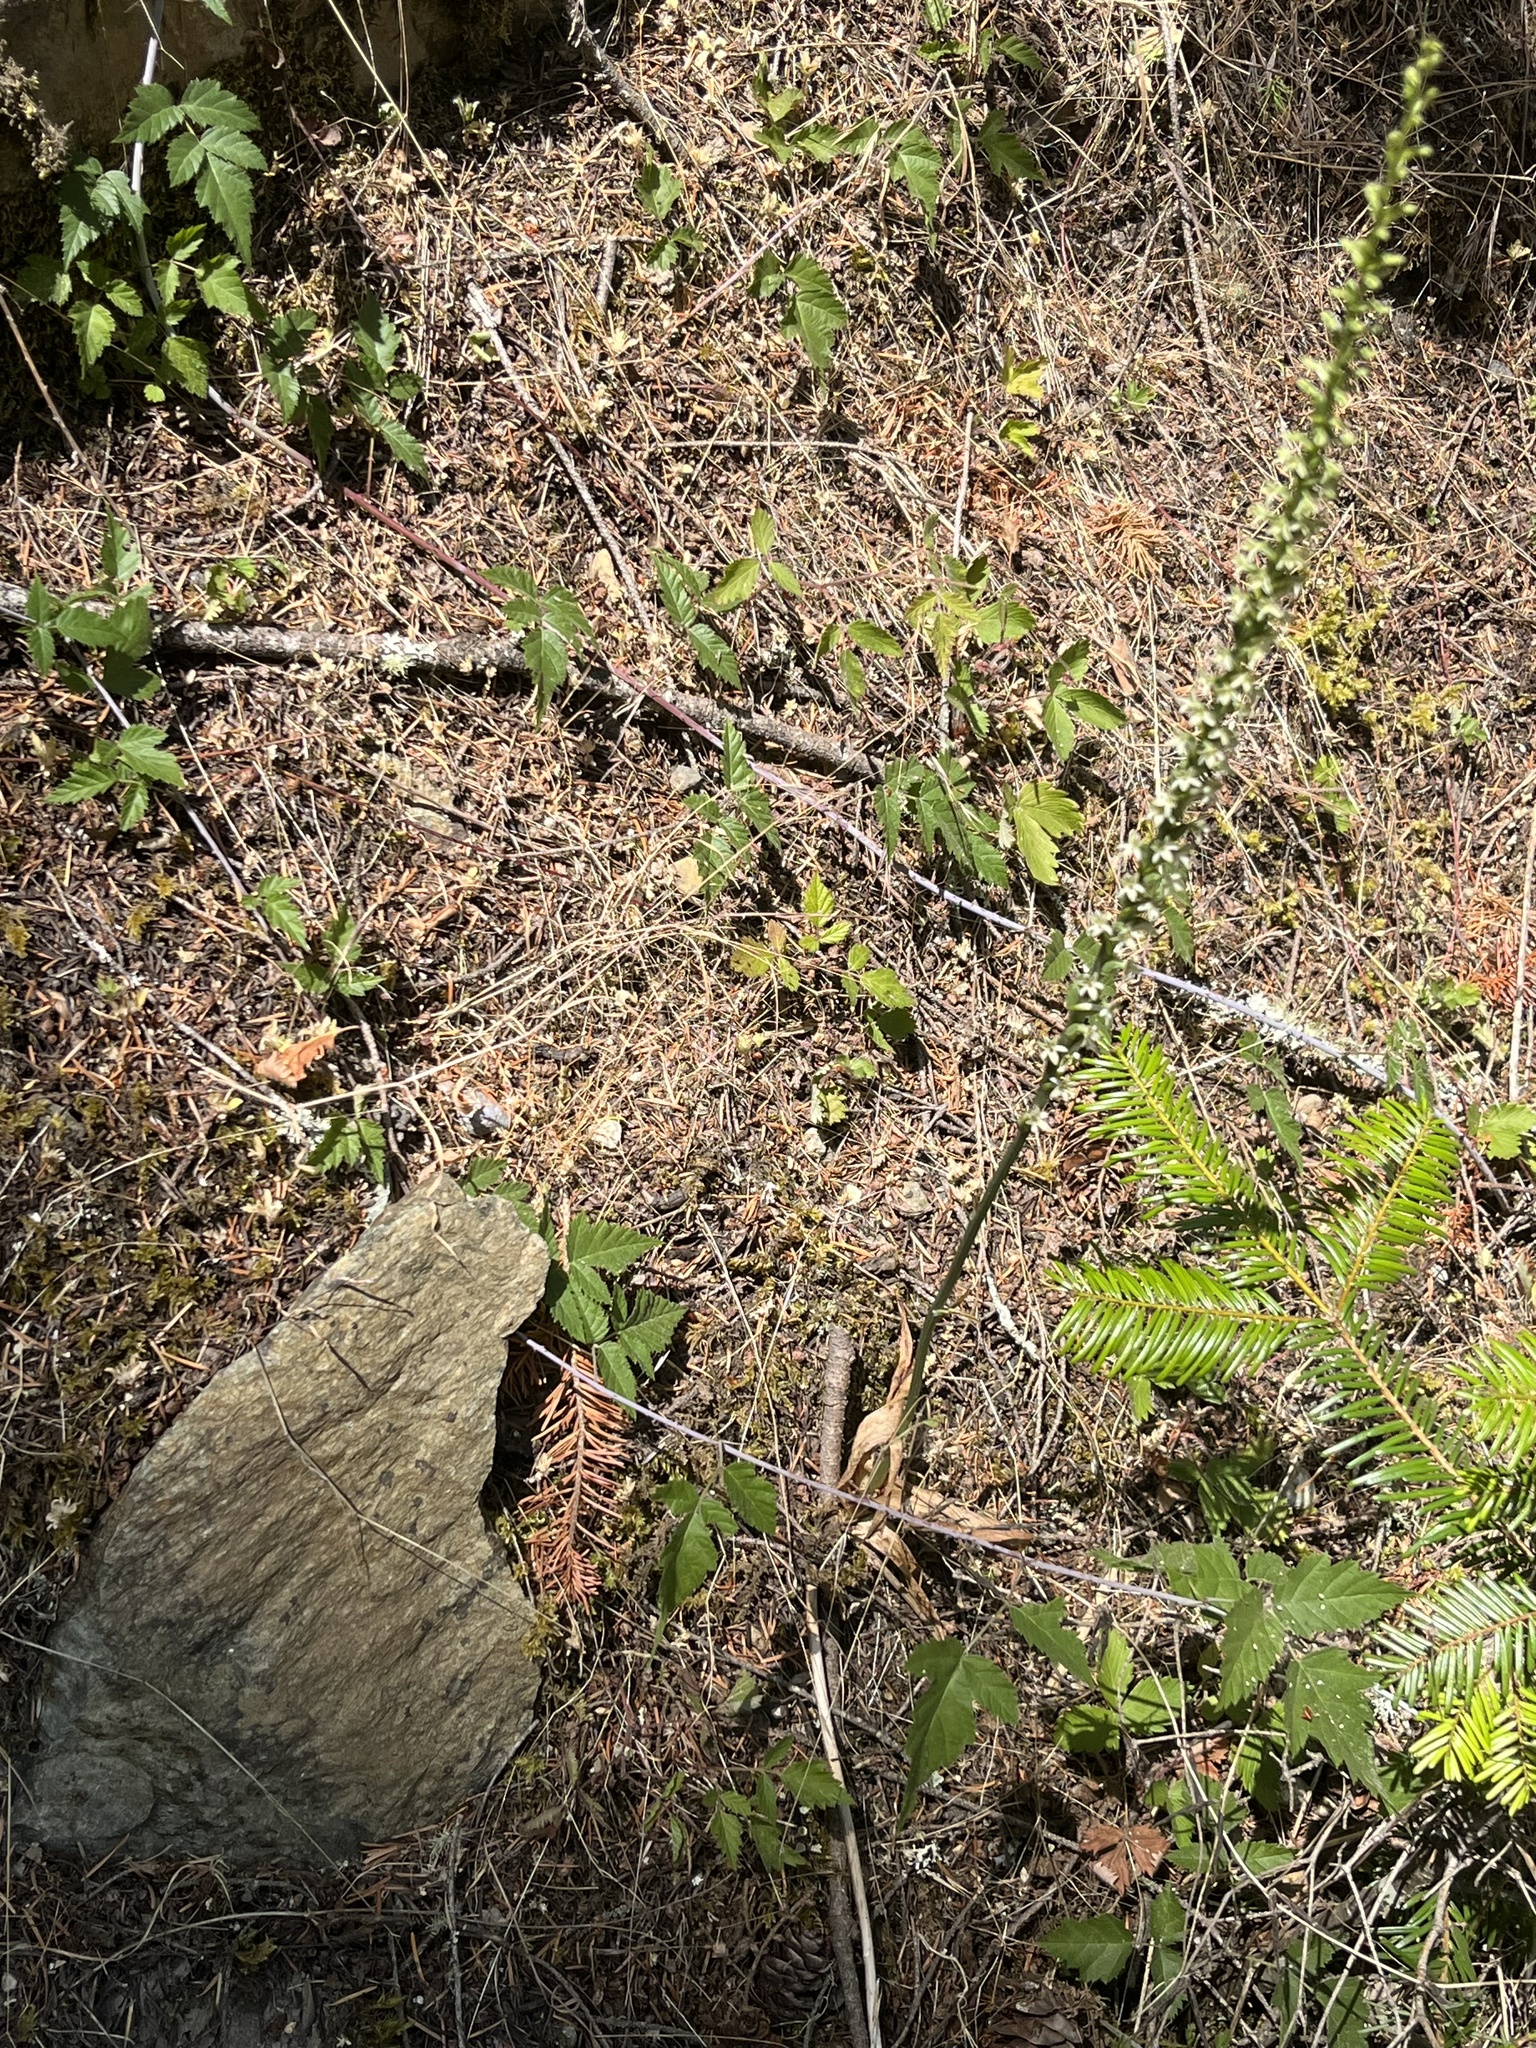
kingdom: Plantae
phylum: Tracheophyta
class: Liliopsida
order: Asparagales
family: Orchidaceae
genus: Platanthera
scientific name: Platanthera transversa
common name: Royal rein orchid
